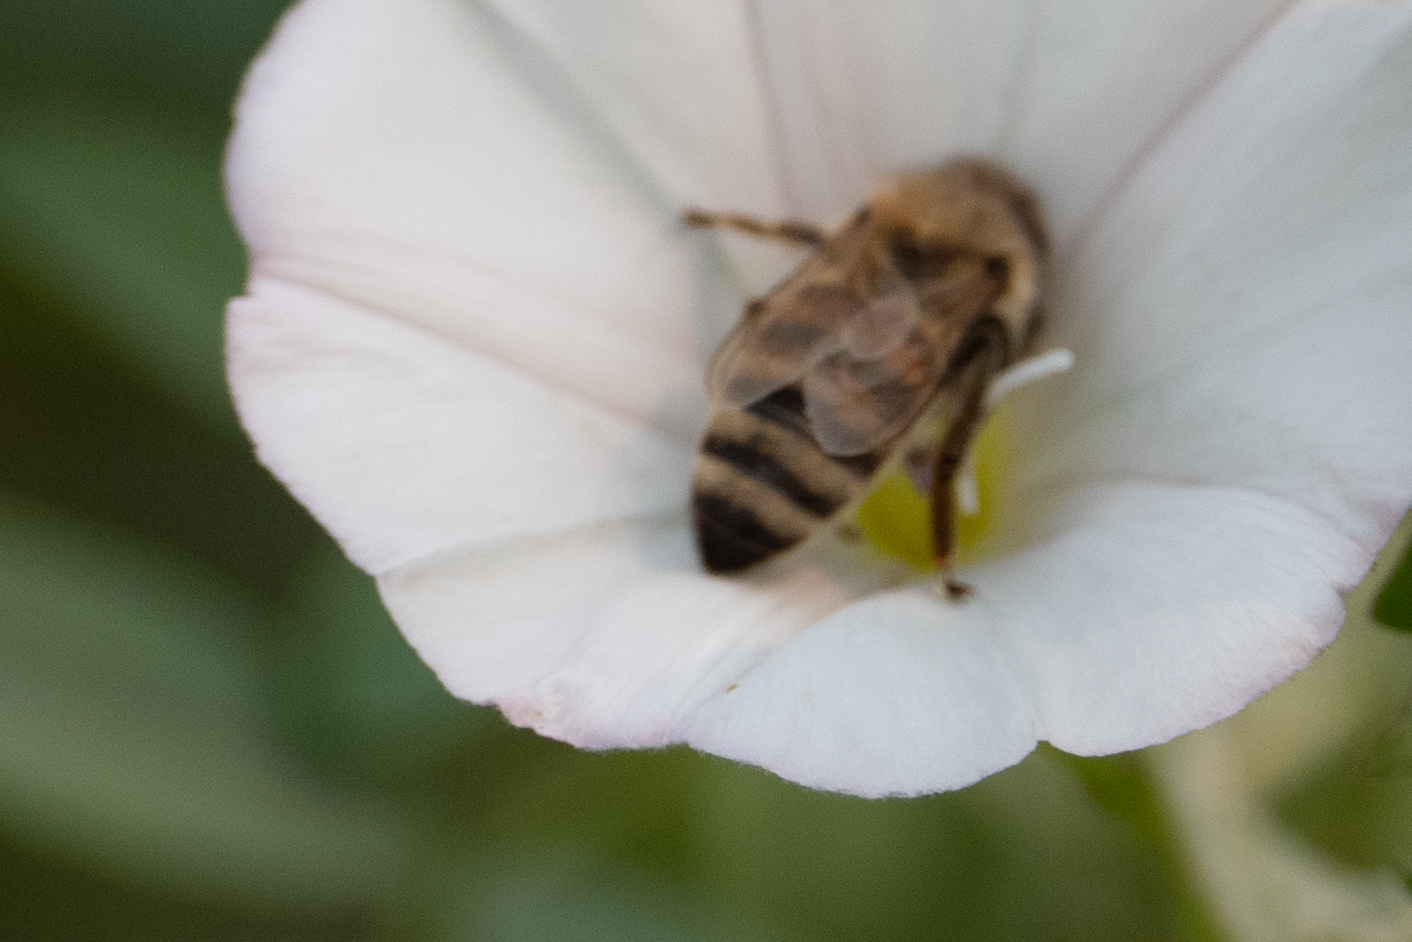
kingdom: Animalia
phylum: Arthropoda
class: Insecta
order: Hymenoptera
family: Apidae
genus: Apis
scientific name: Apis mellifera
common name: Honey bee
